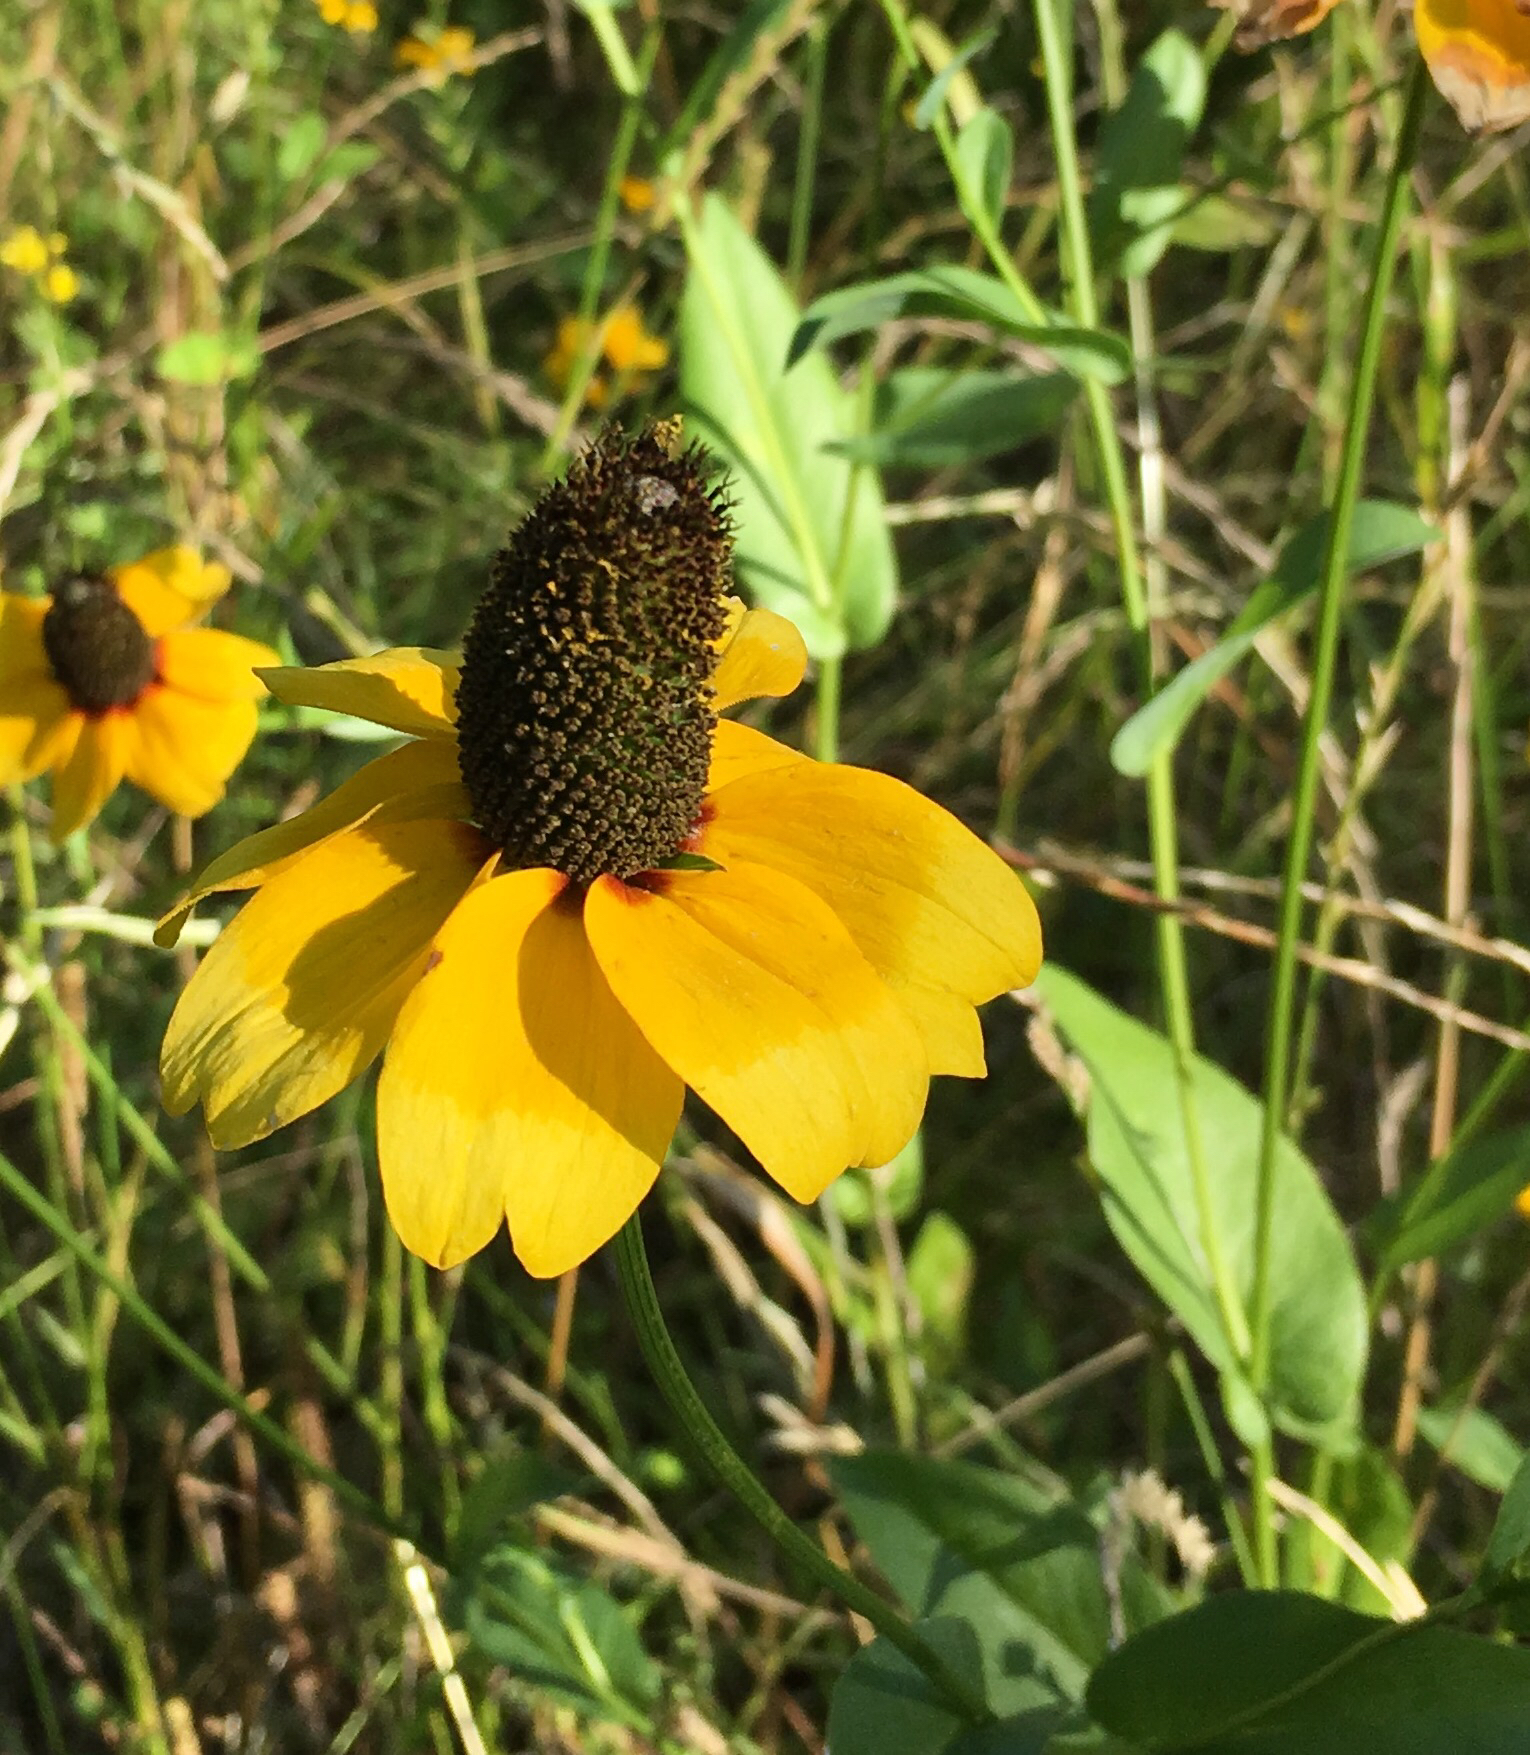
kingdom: Plantae
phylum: Tracheophyta
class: Magnoliopsida
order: Asterales
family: Asteraceae
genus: Rudbeckia
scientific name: Rudbeckia amplexicaulis
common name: Clasping-leaf coneflower
